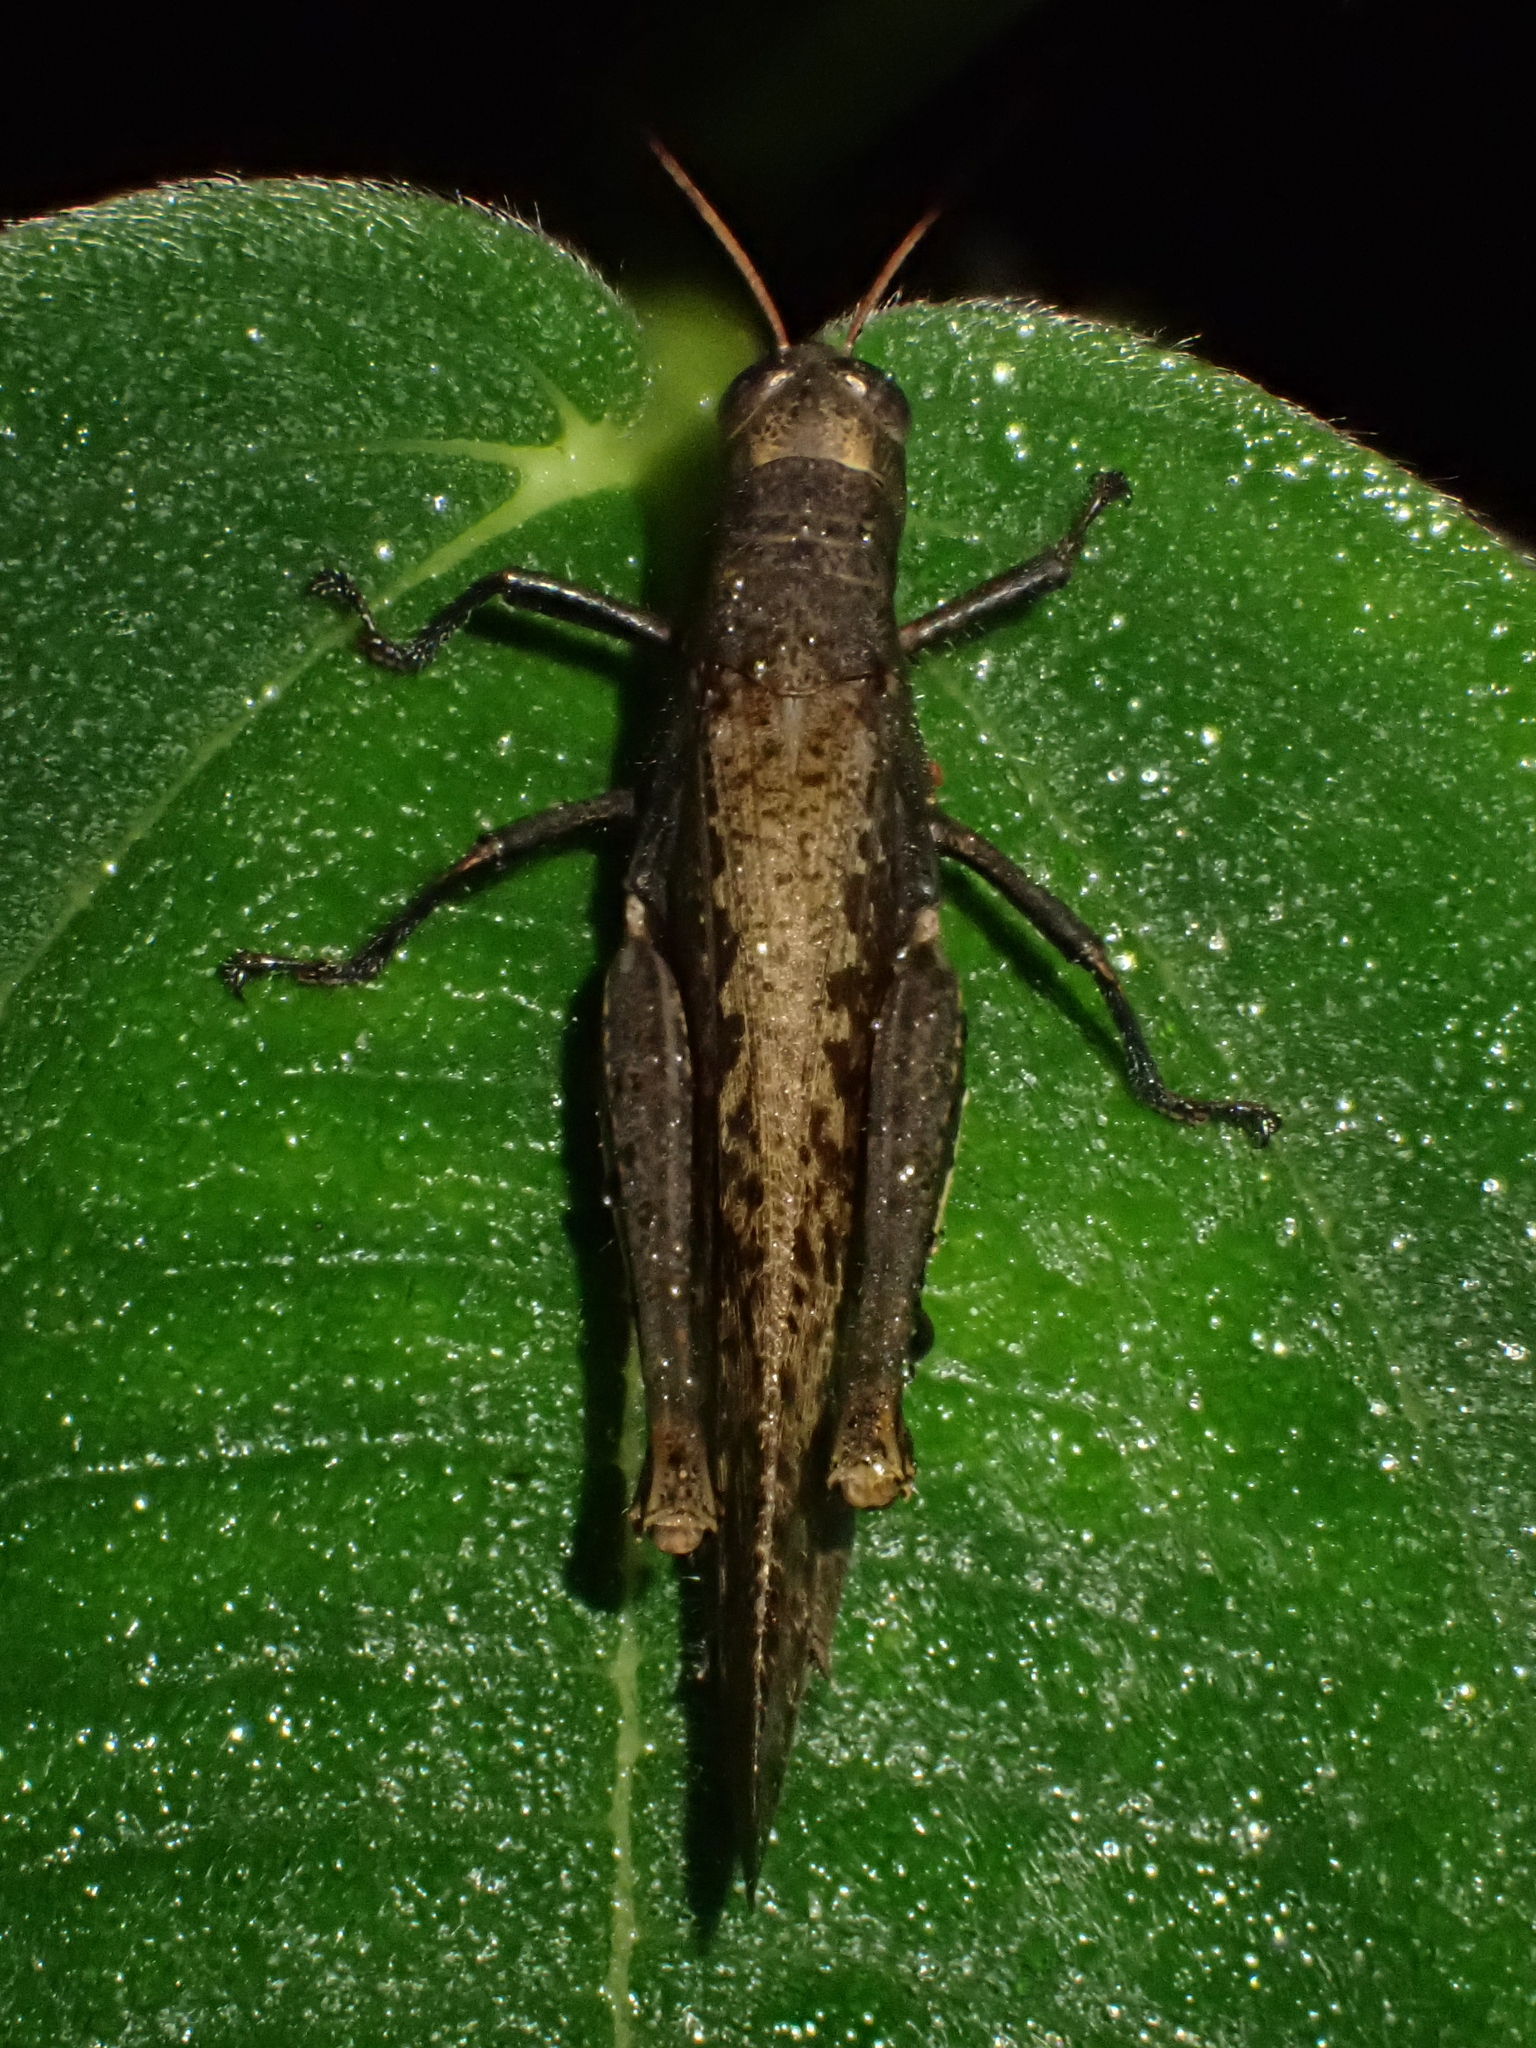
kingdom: Animalia
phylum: Arthropoda
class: Insecta
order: Orthoptera
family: Acrididae
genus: Abracris
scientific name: Abracris flavolineata
